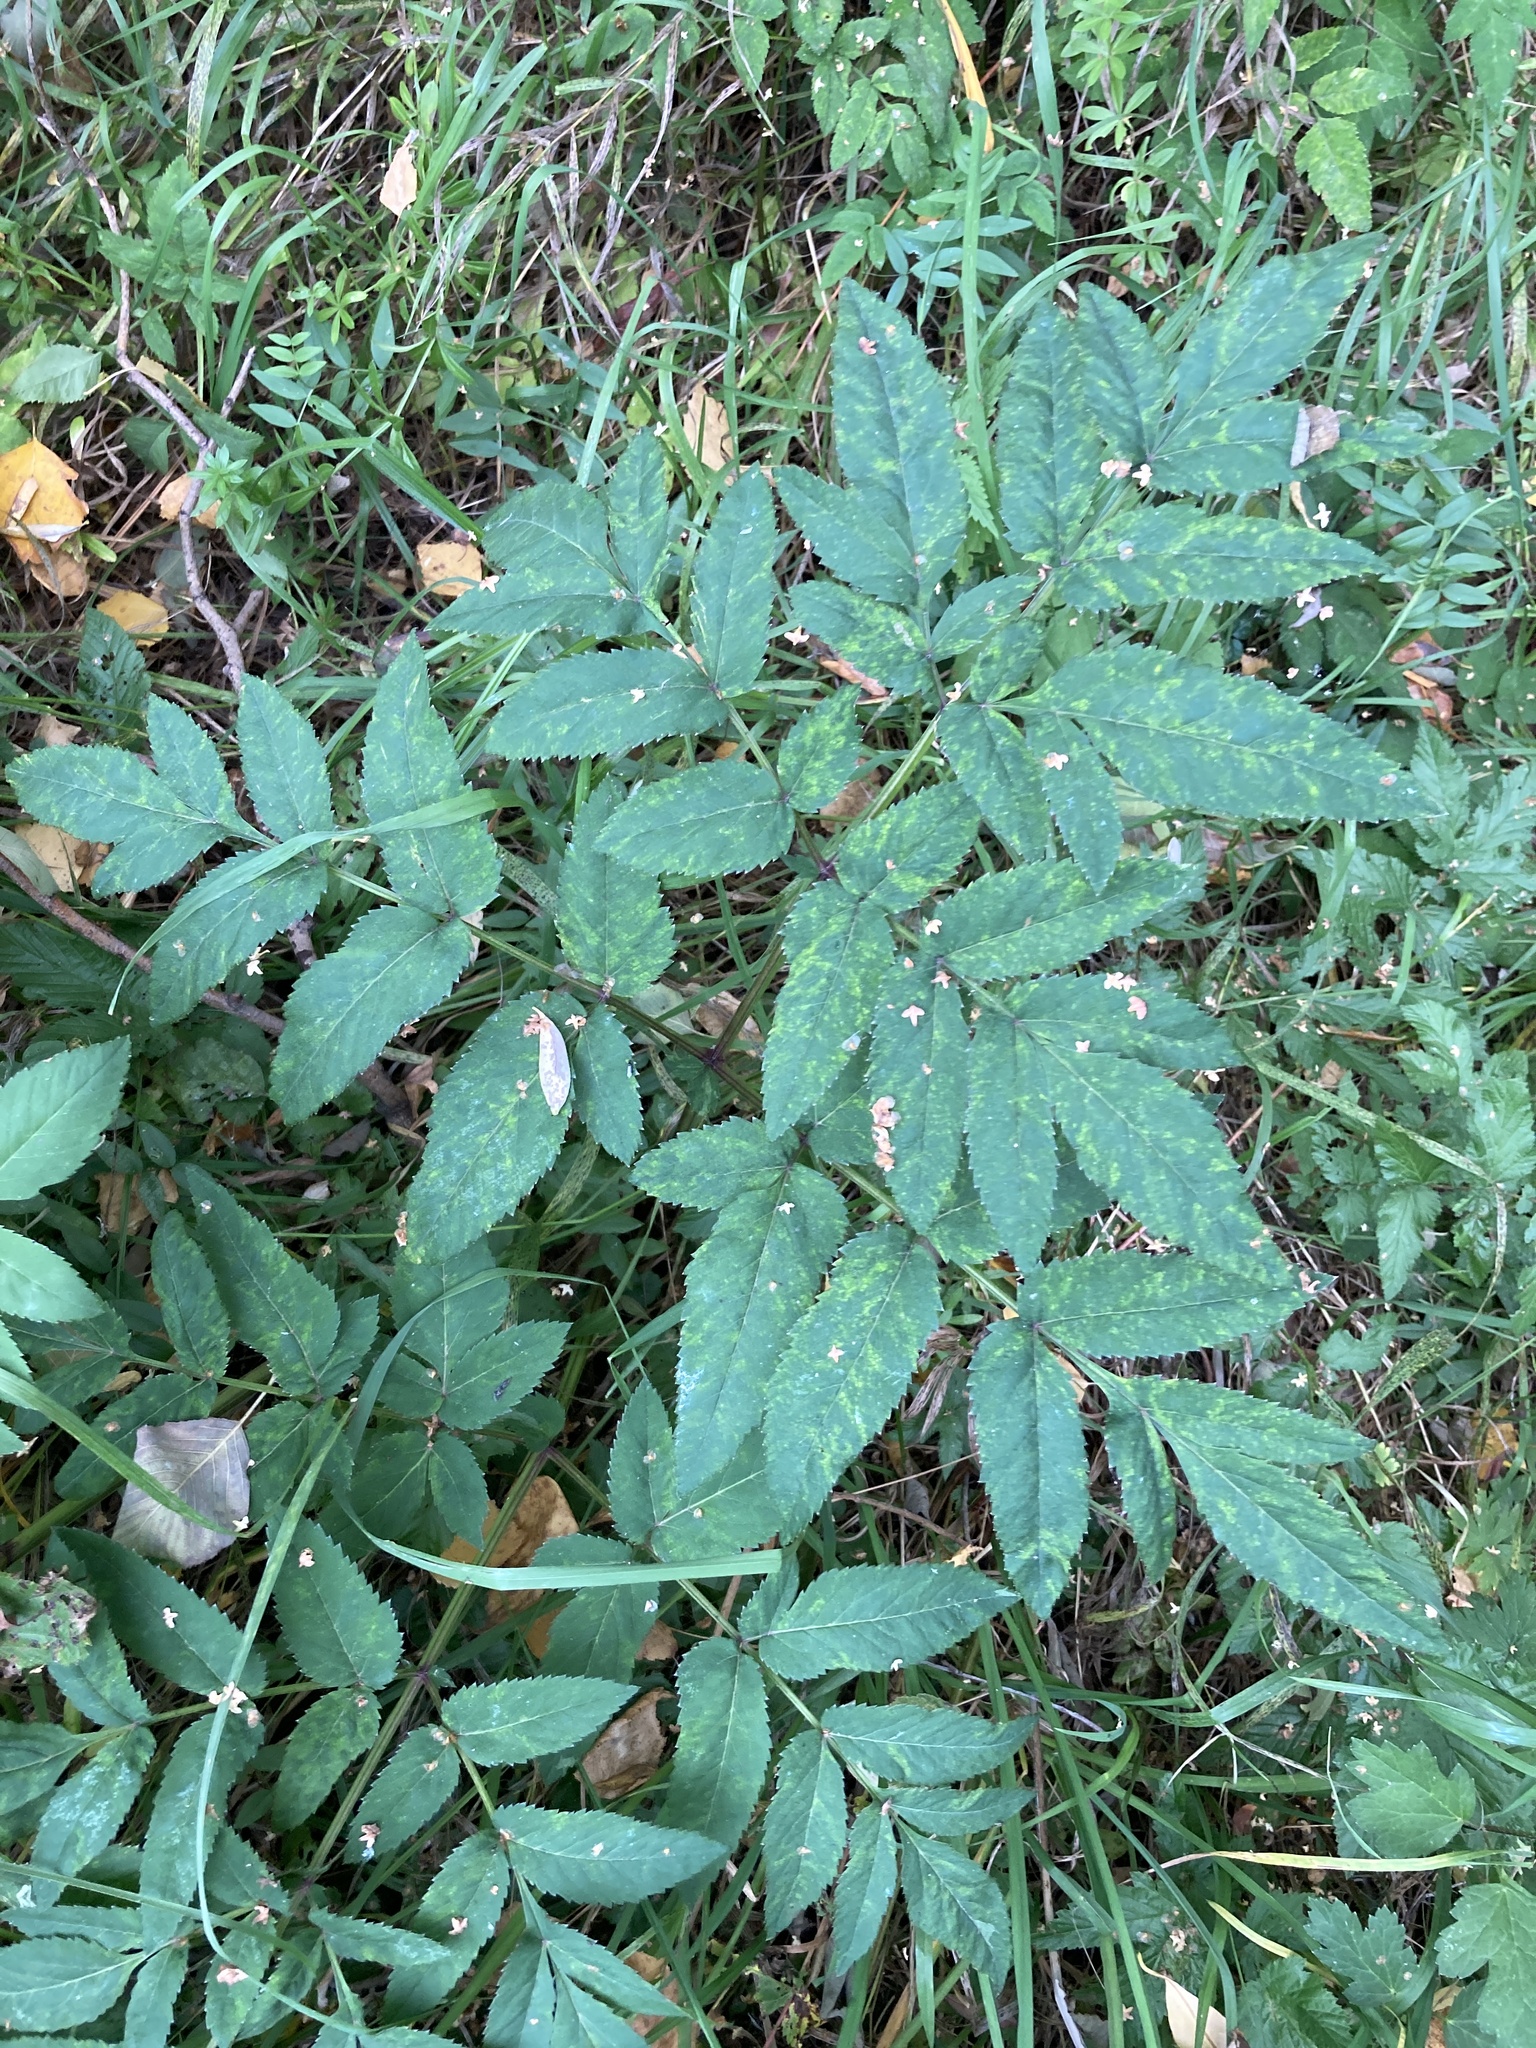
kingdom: Plantae
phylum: Tracheophyta
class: Magnoliopsida
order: Apiales
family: Apiaceae
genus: Angelica
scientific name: Angelica sylvestris
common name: Wild angelica
